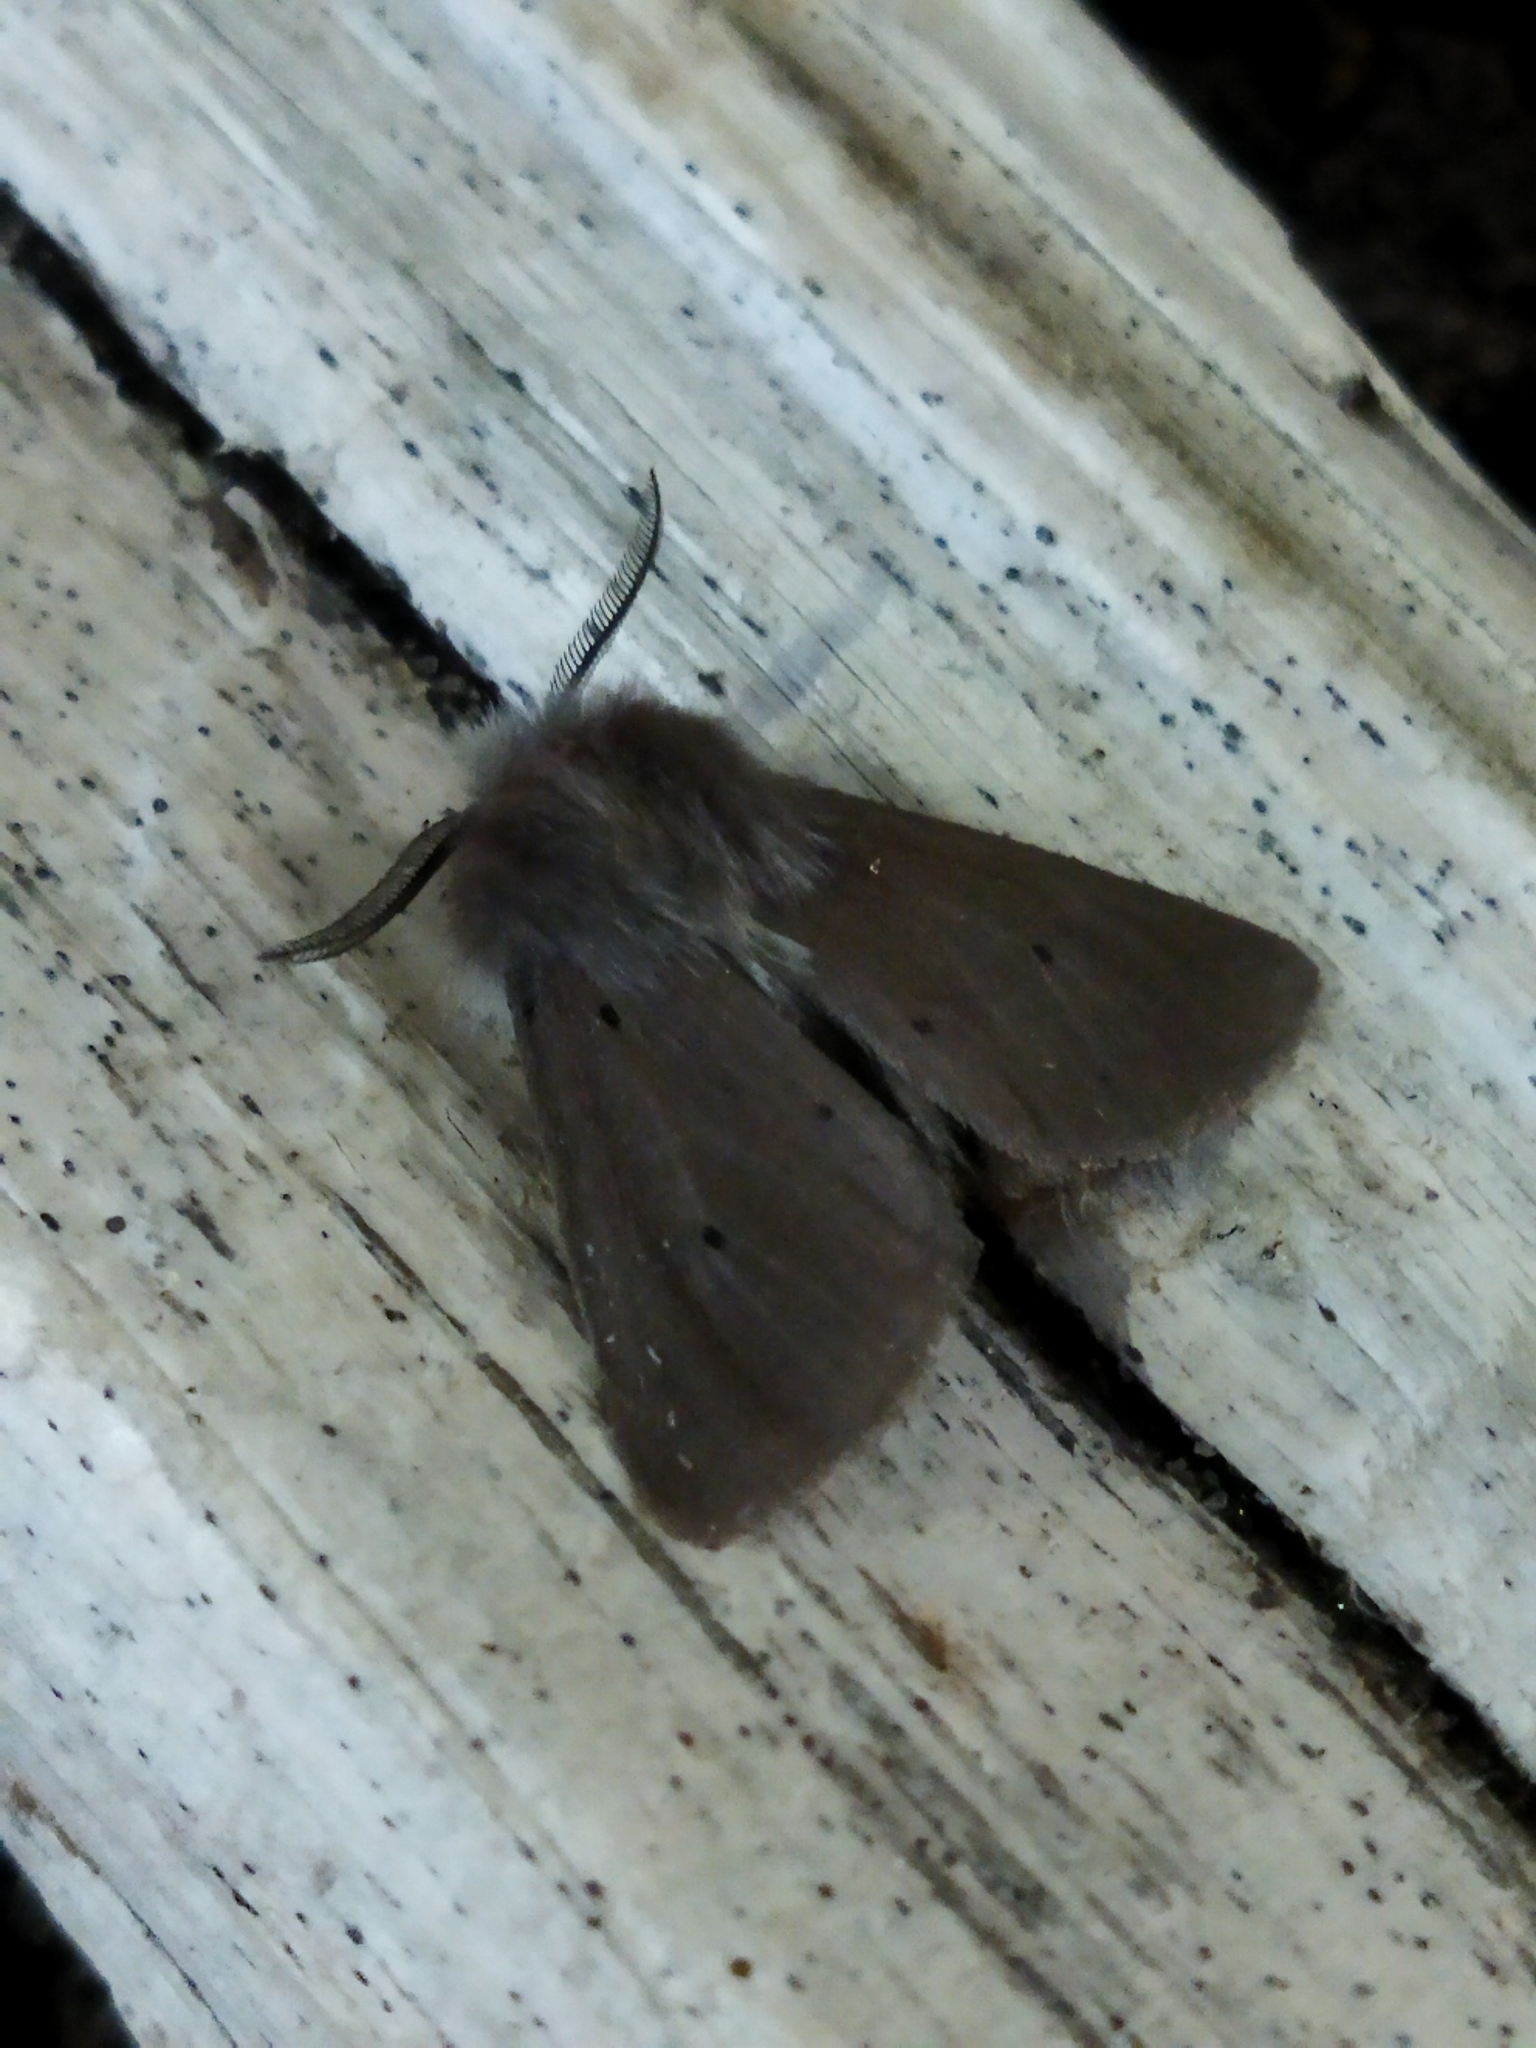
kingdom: Animalia
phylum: Arthropoda
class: Insecta
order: Lepidoptera
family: Erebidae
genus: Diaphora
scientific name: Diaphora mendica
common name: Muslin moth
